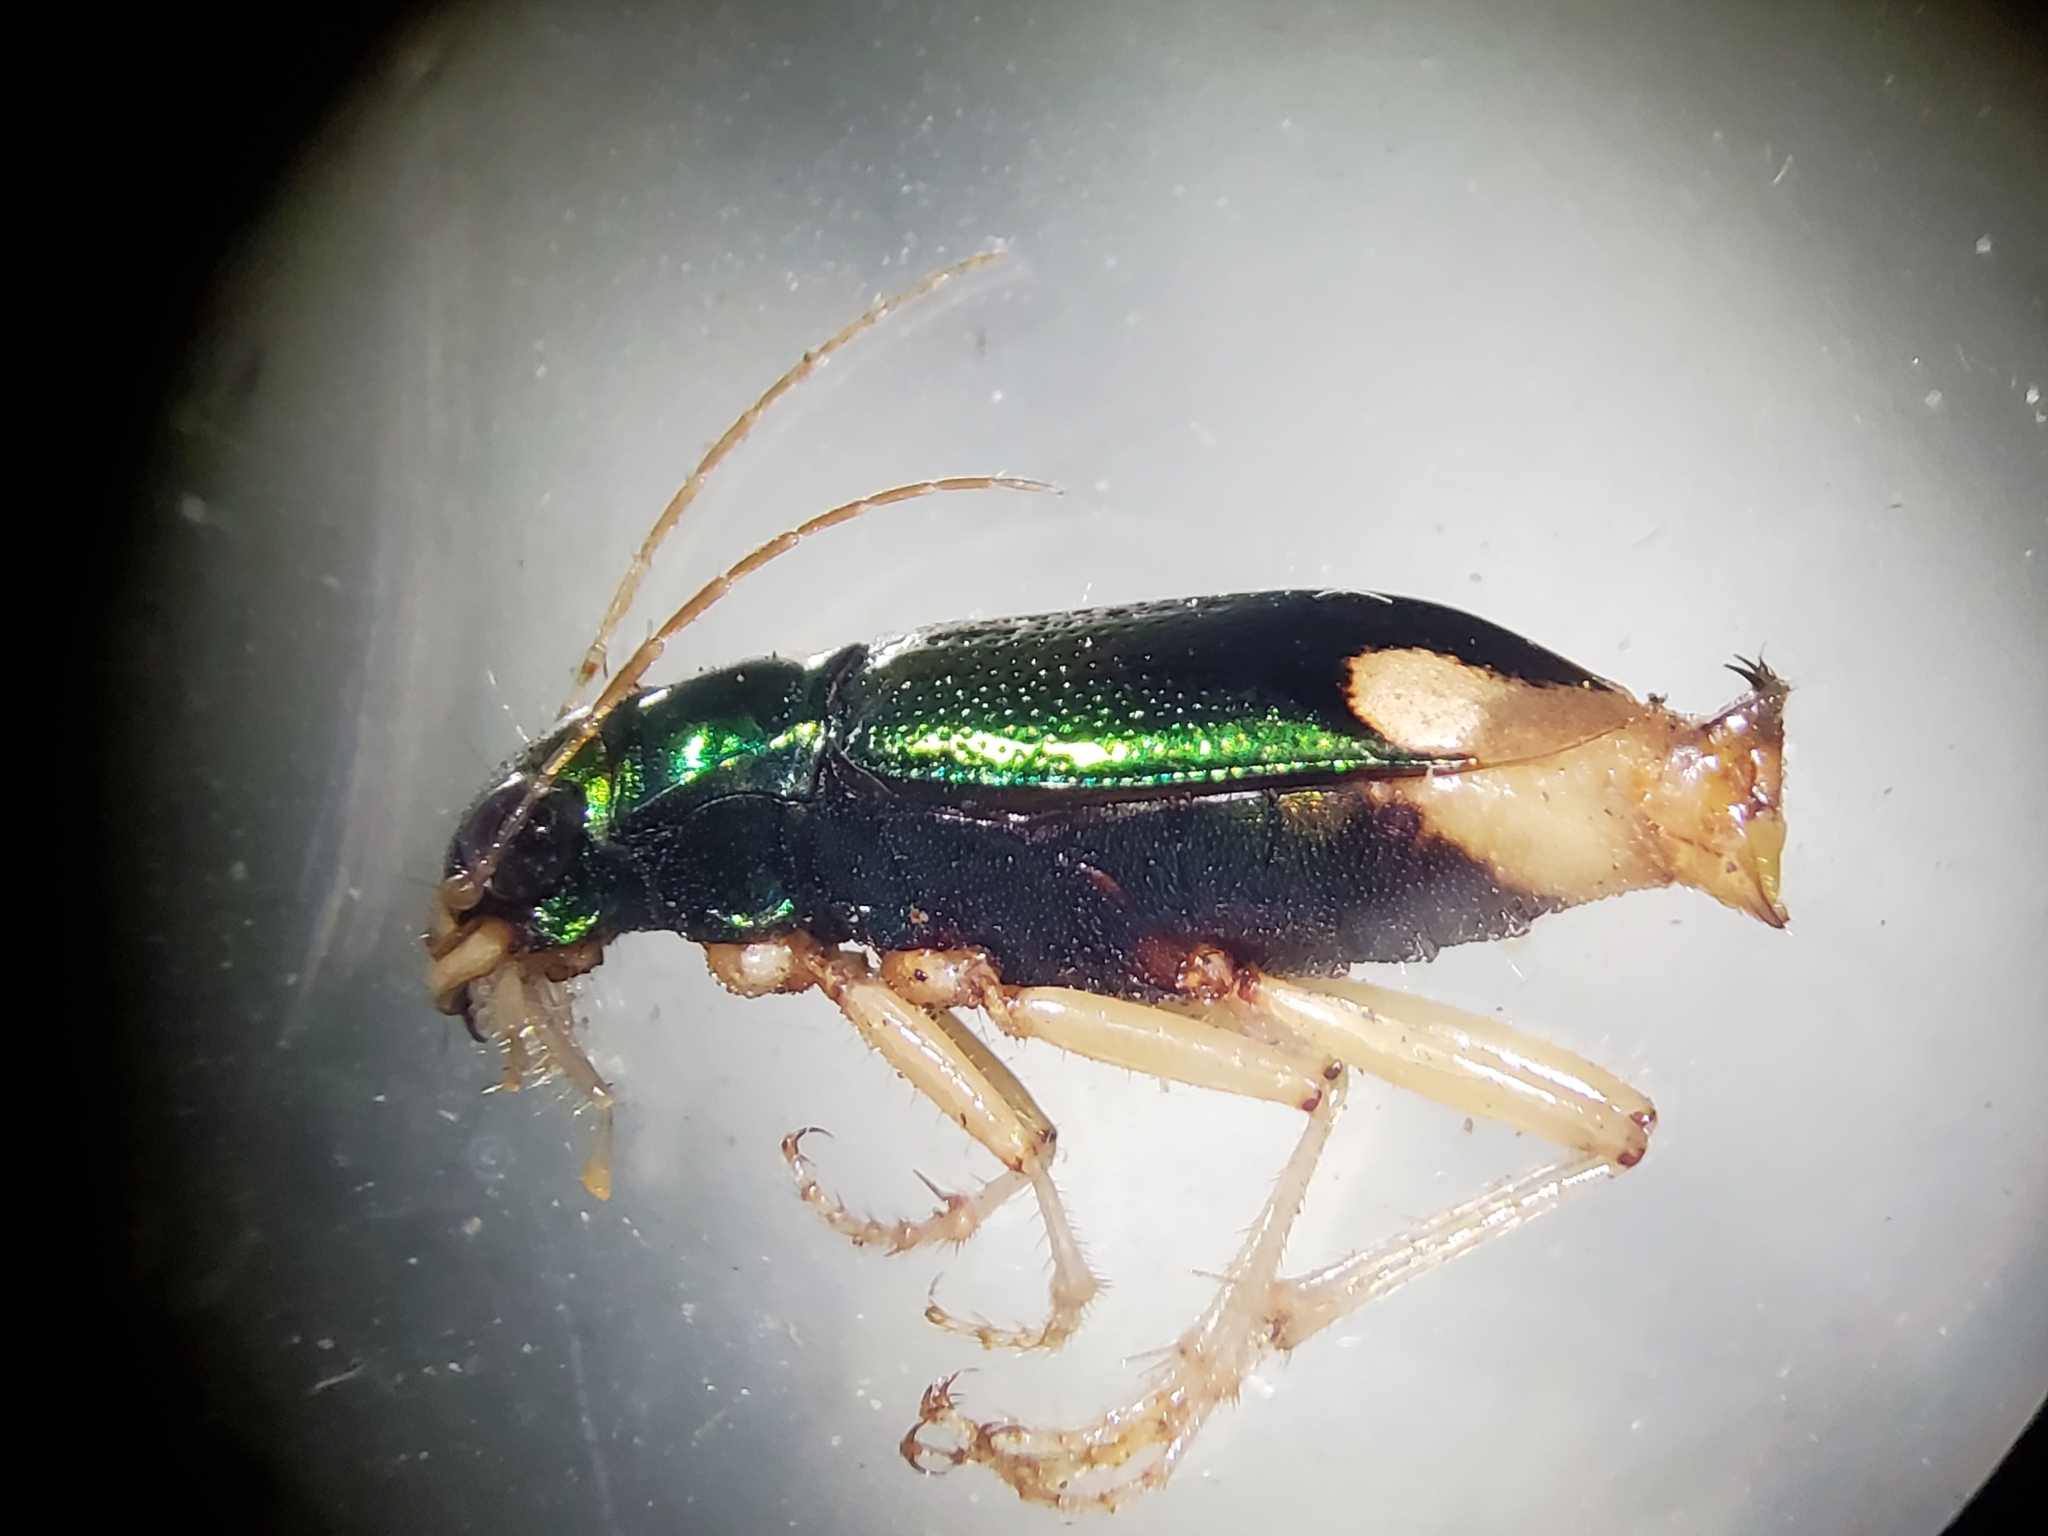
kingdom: Animalia
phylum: Arthropoda
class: Insecta
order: Coleoptera
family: Carabidae
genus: Tetracha
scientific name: Tetracha carolina
